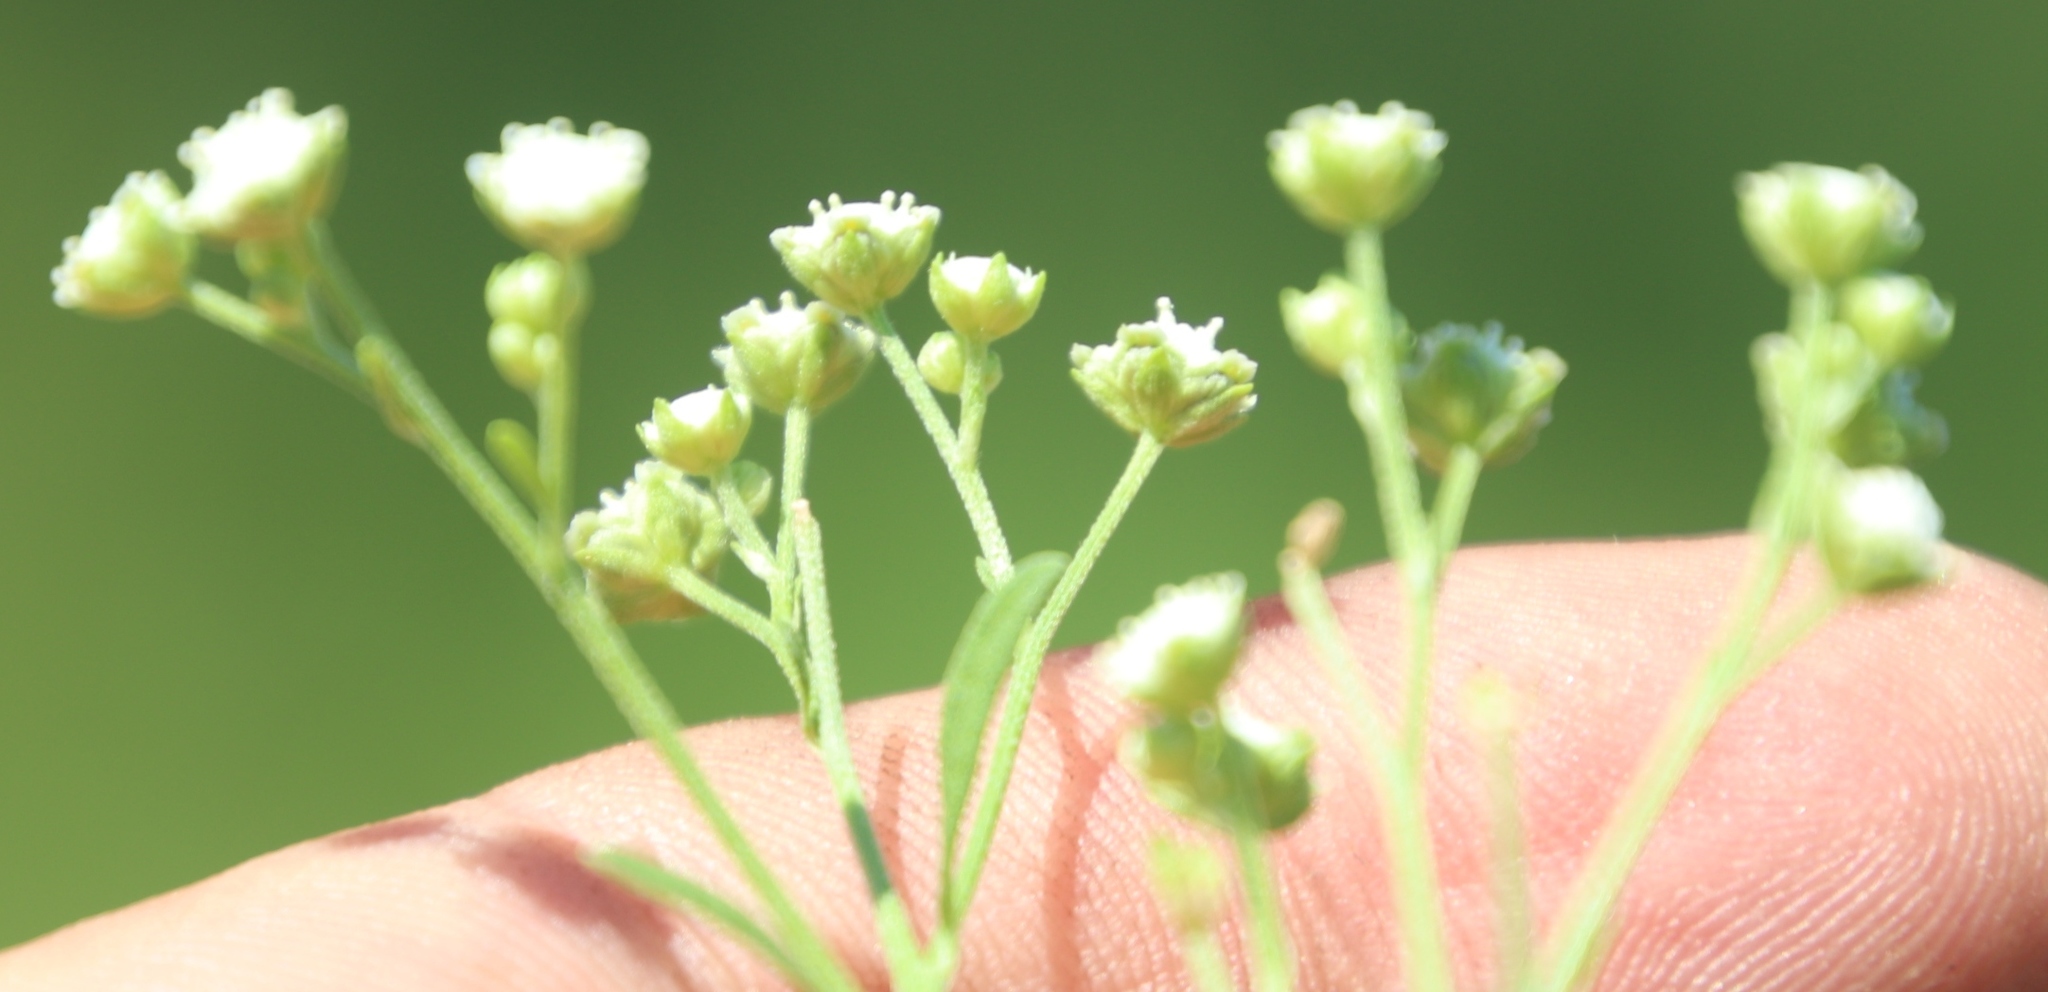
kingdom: Plantae
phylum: Tracheophyta
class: Magnoliopsida
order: Asterales
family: Asteraceae
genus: Parthenium
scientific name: Parthenium hysterophorus
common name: Santa maria feverfew
